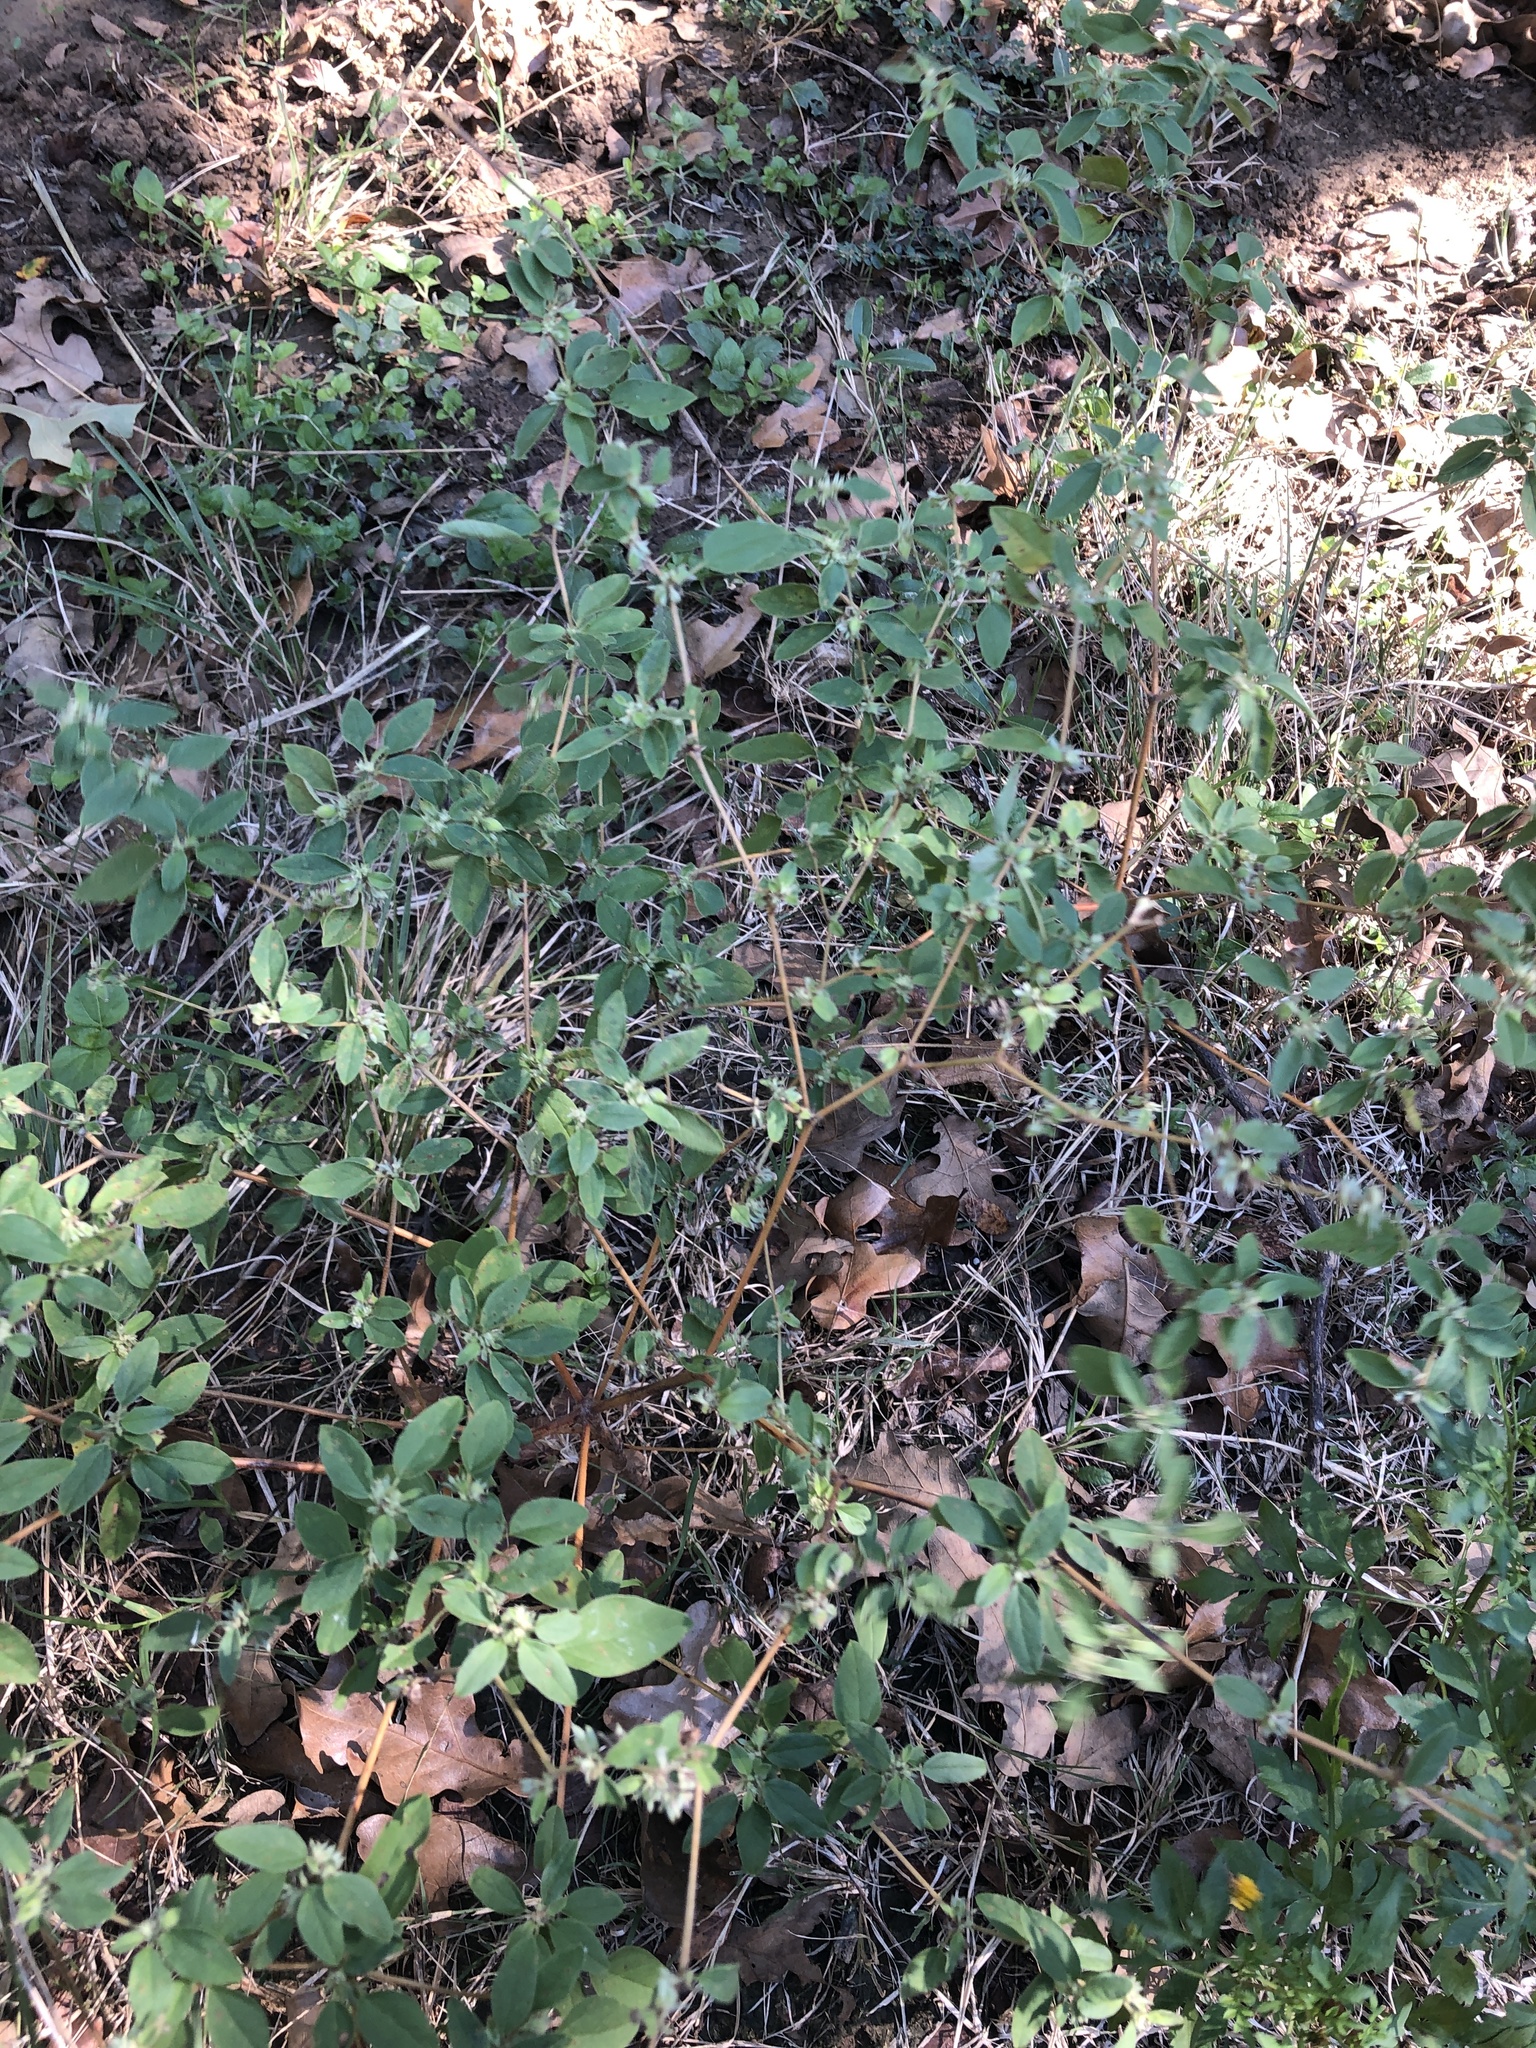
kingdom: Plantae
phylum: Tracheophyta
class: Magnoliopsida
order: Malpighiales
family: Euphorbiaceae
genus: Croton
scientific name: Croton monanthogynus
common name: One-seed croton
